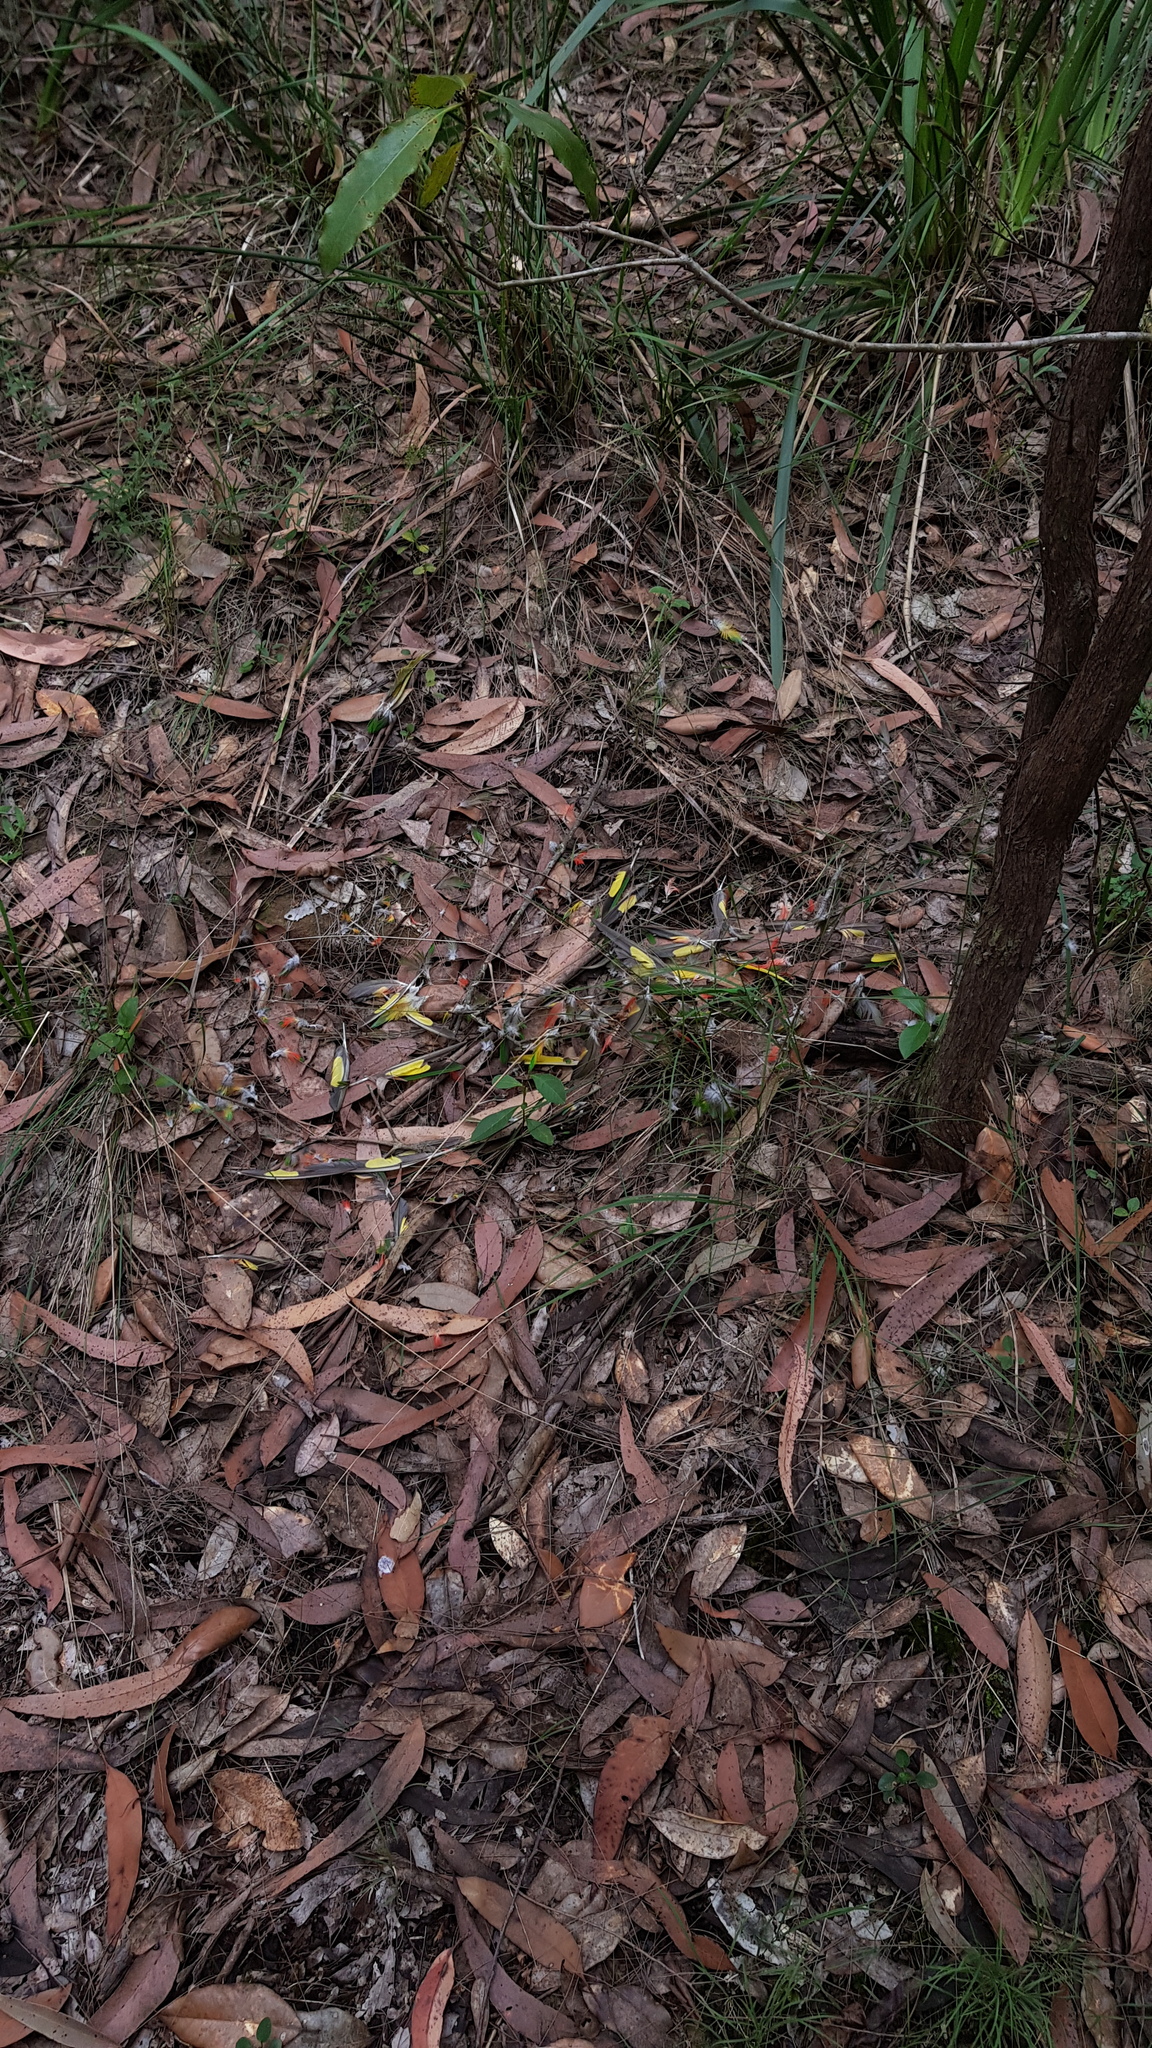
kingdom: Animalia
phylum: Chordata
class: Aves
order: Psittaciformes
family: Psittacidae
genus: Trichoglossus
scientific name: Trichoglossus haematodus
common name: Coconut lorikeet
